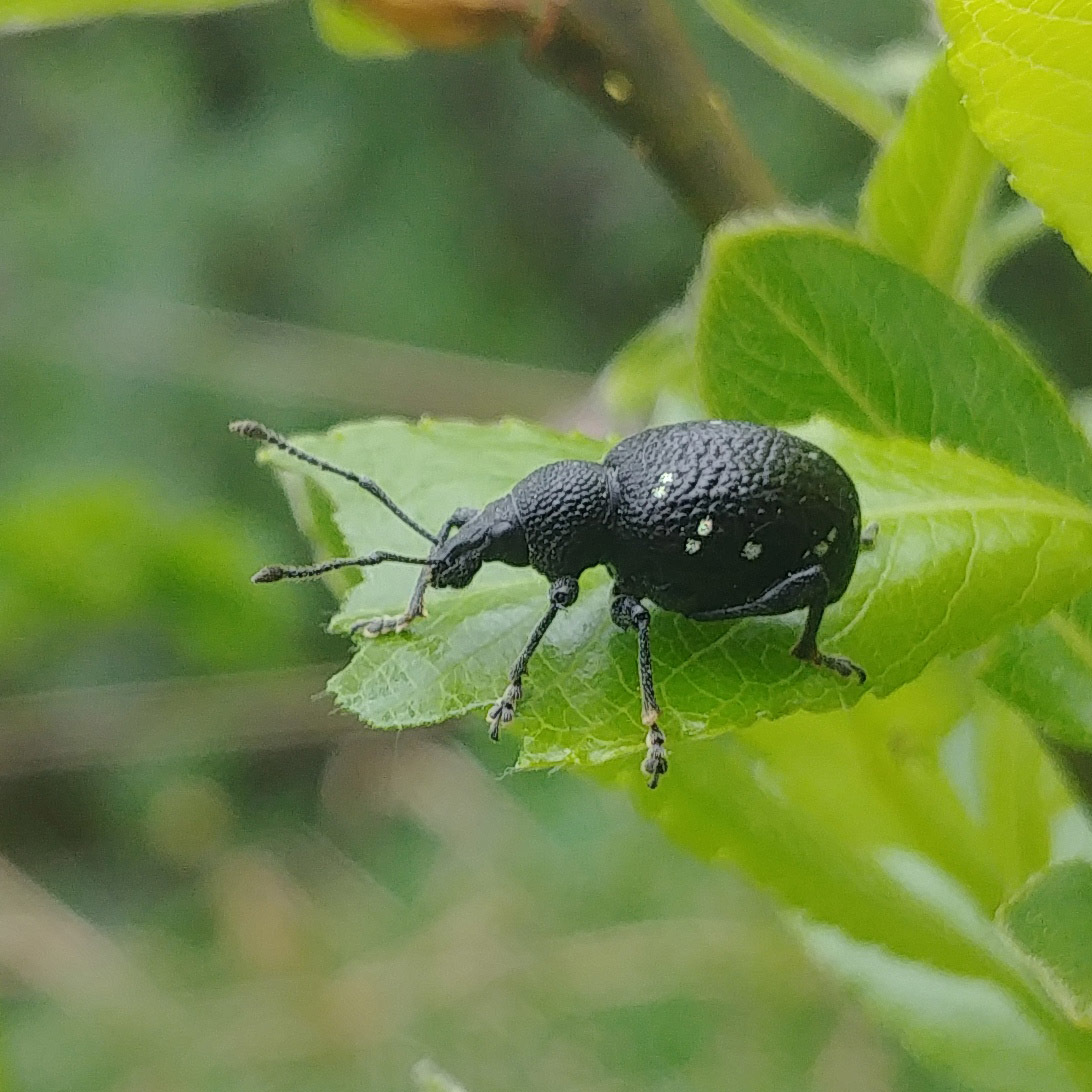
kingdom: Animalia
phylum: Arthropoda
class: Insecta
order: Coleoptera
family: Curculionidae
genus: Otiorhynchus
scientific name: Otiorhynchus gemmatus
